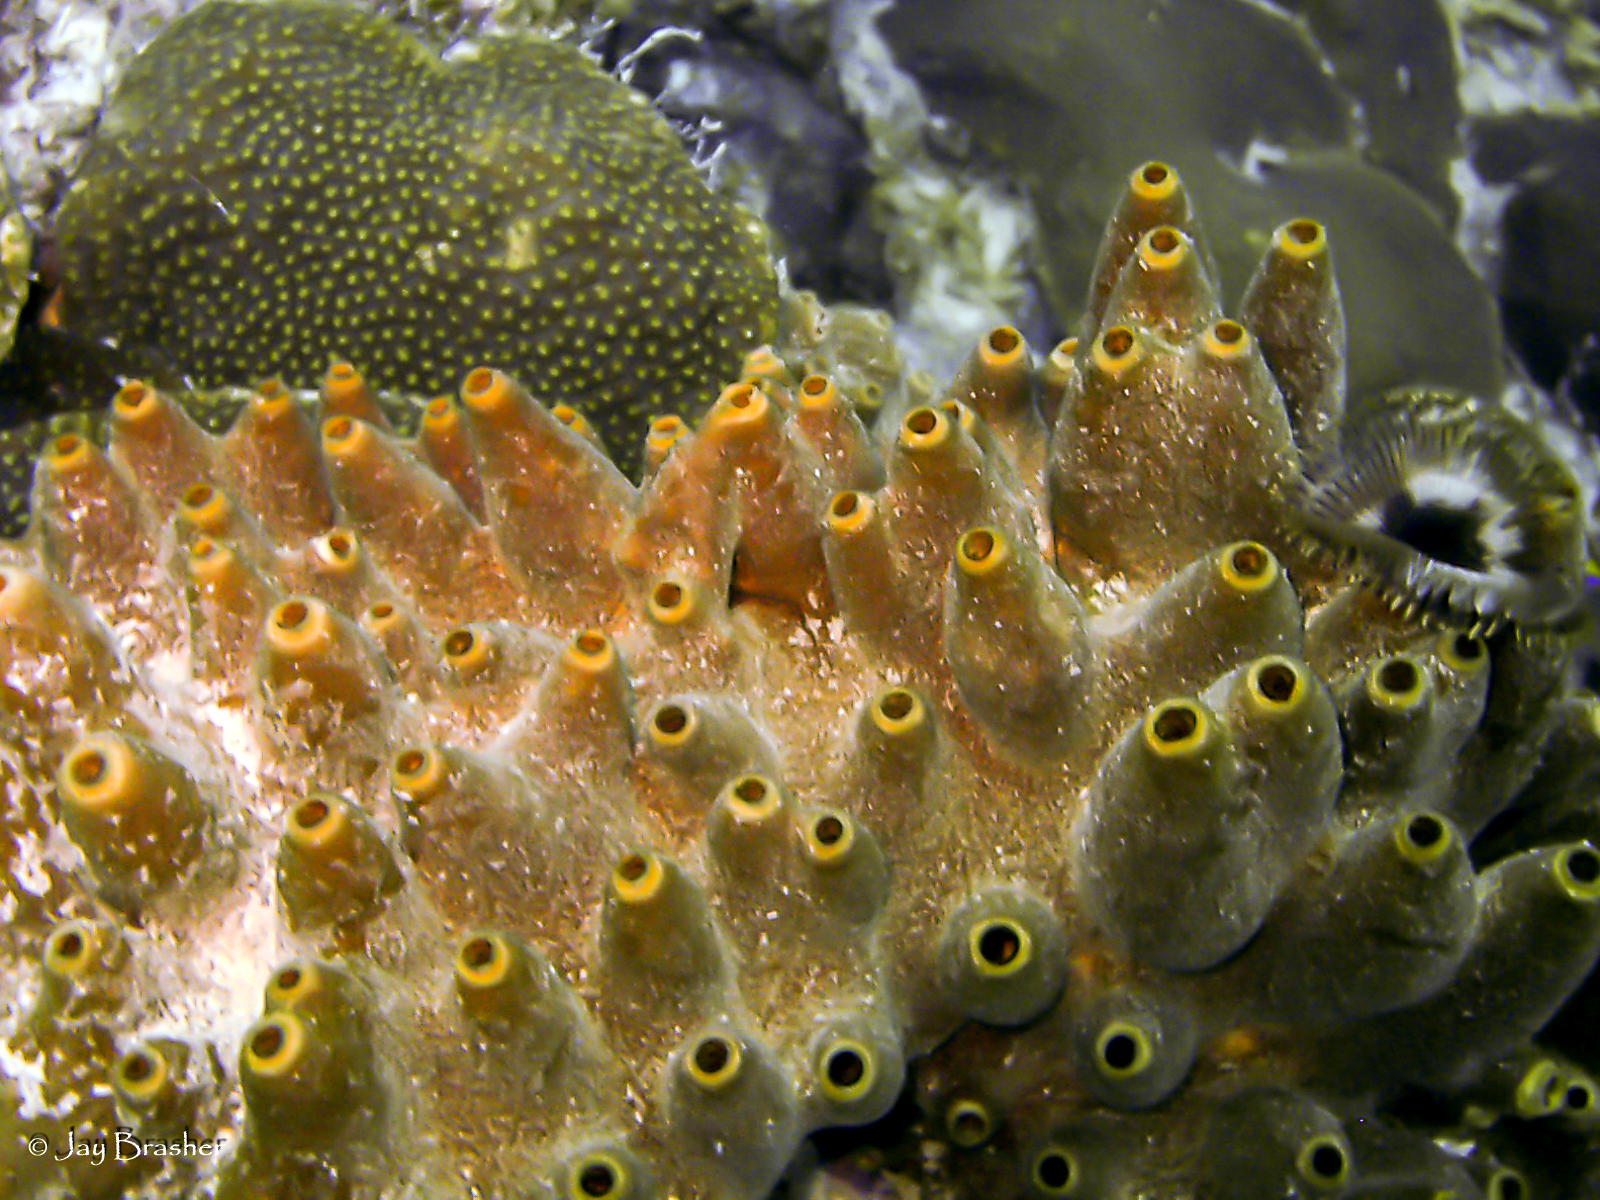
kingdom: Animalia
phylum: Porifera
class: Demospongiae
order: Axinellida
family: Raspailiidae
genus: Ectyoplasia
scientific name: Ectyoplasia ferox
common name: Brown encrusting octopus sponge
